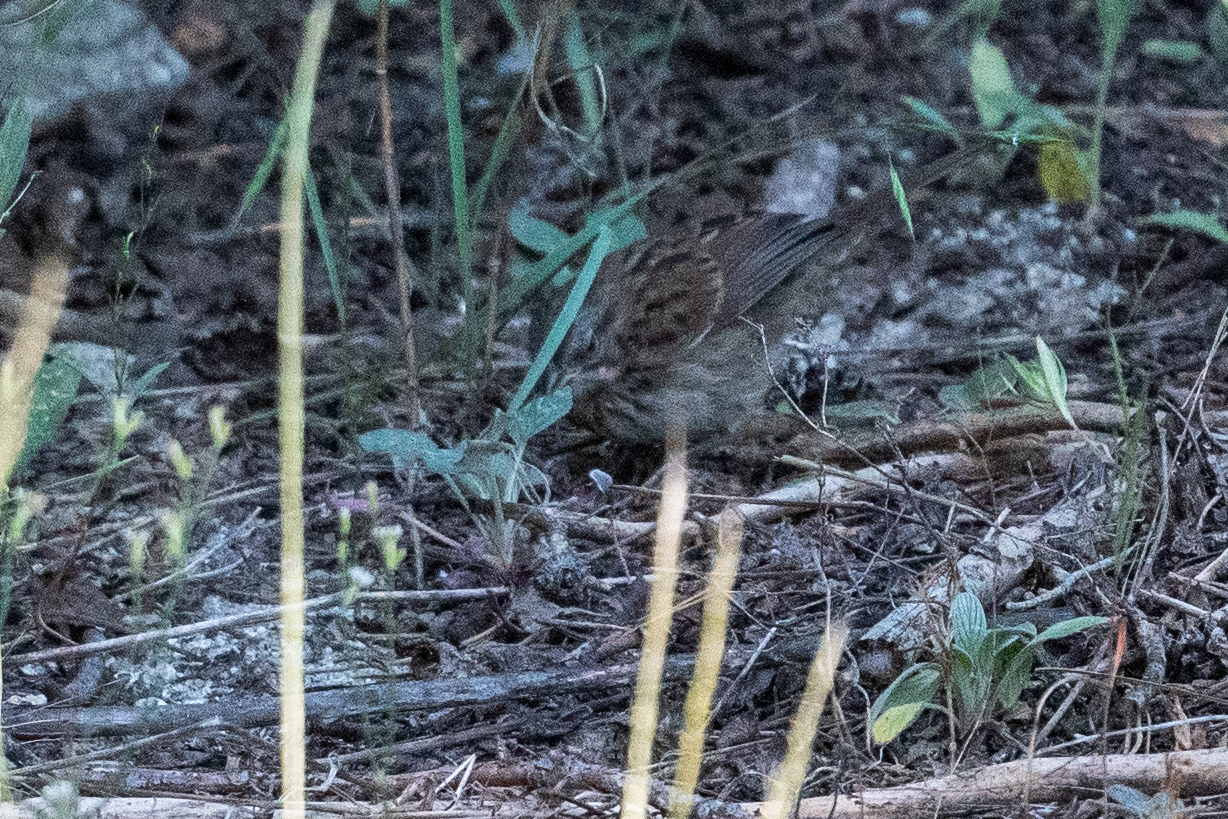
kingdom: Animalia
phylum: Chordata
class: Aves
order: Passeriformes
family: Passerellidae
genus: Melospiza
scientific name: Melospiza melodia
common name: Song sparrow
